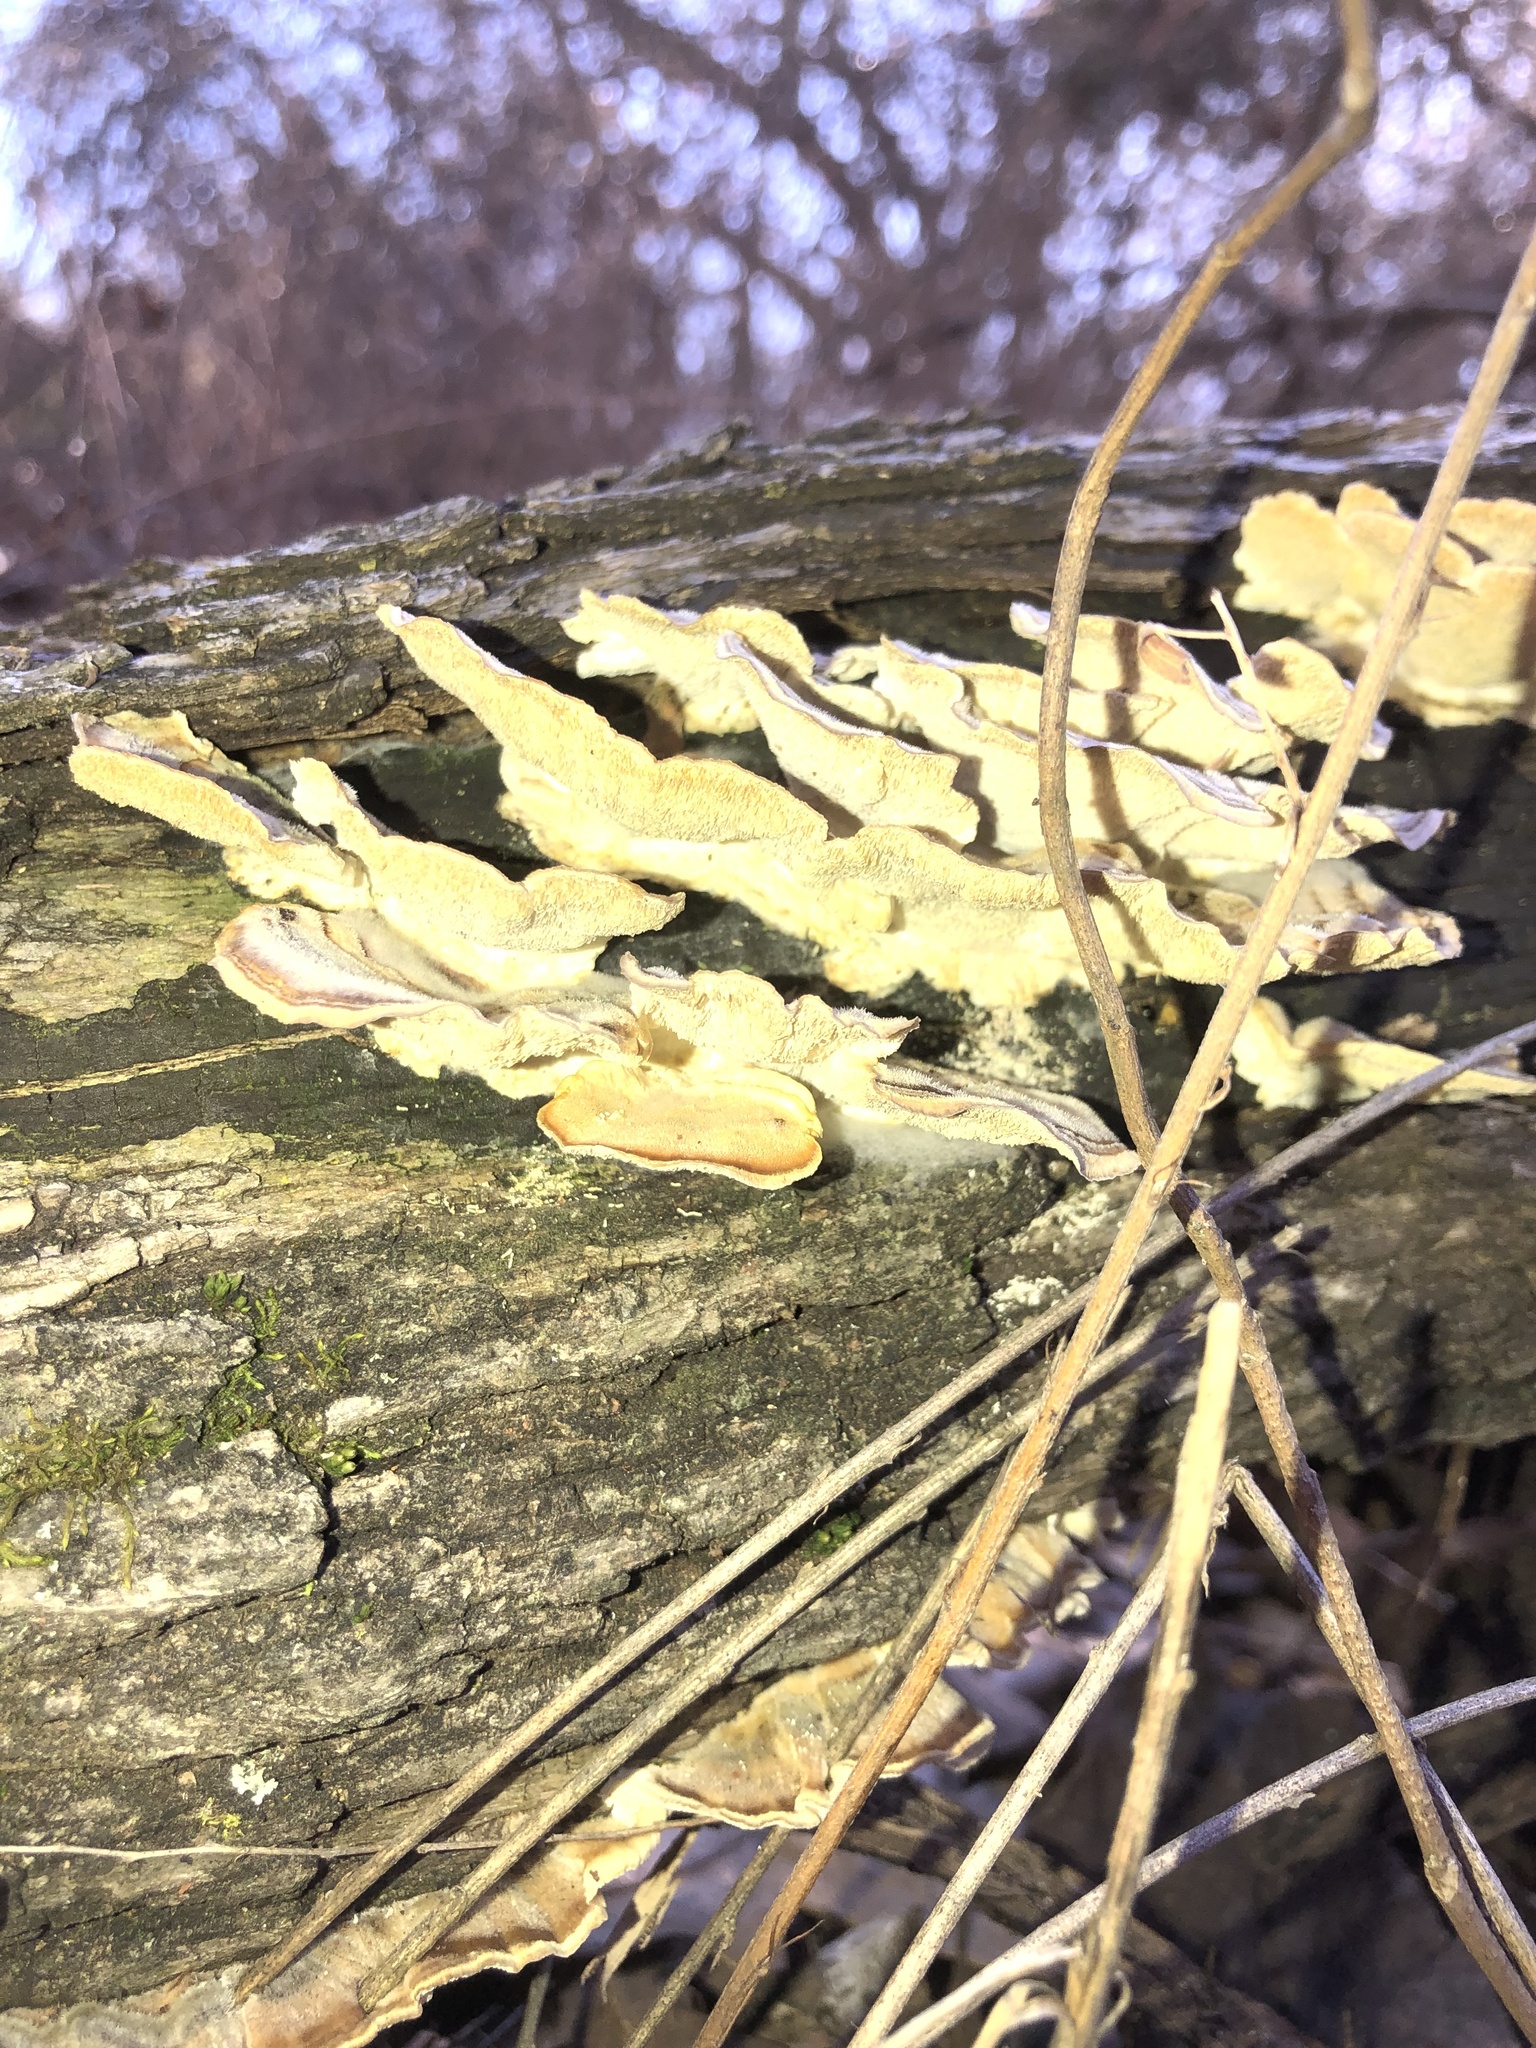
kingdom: Fungi
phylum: Basidiomycota
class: Agaricomycetes
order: Polyporales
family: Polyporaceae
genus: Trametes
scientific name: Trametes versicolor
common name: Turkeytail
